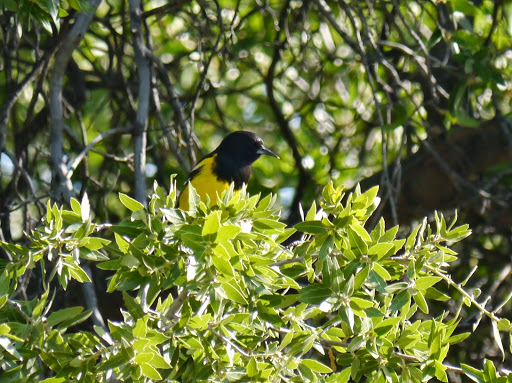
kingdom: Animalia
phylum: Chordata
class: Aves
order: Passeriformes
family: Icteridae
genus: Icterus
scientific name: Icterus parisorum
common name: Scott's oriole
